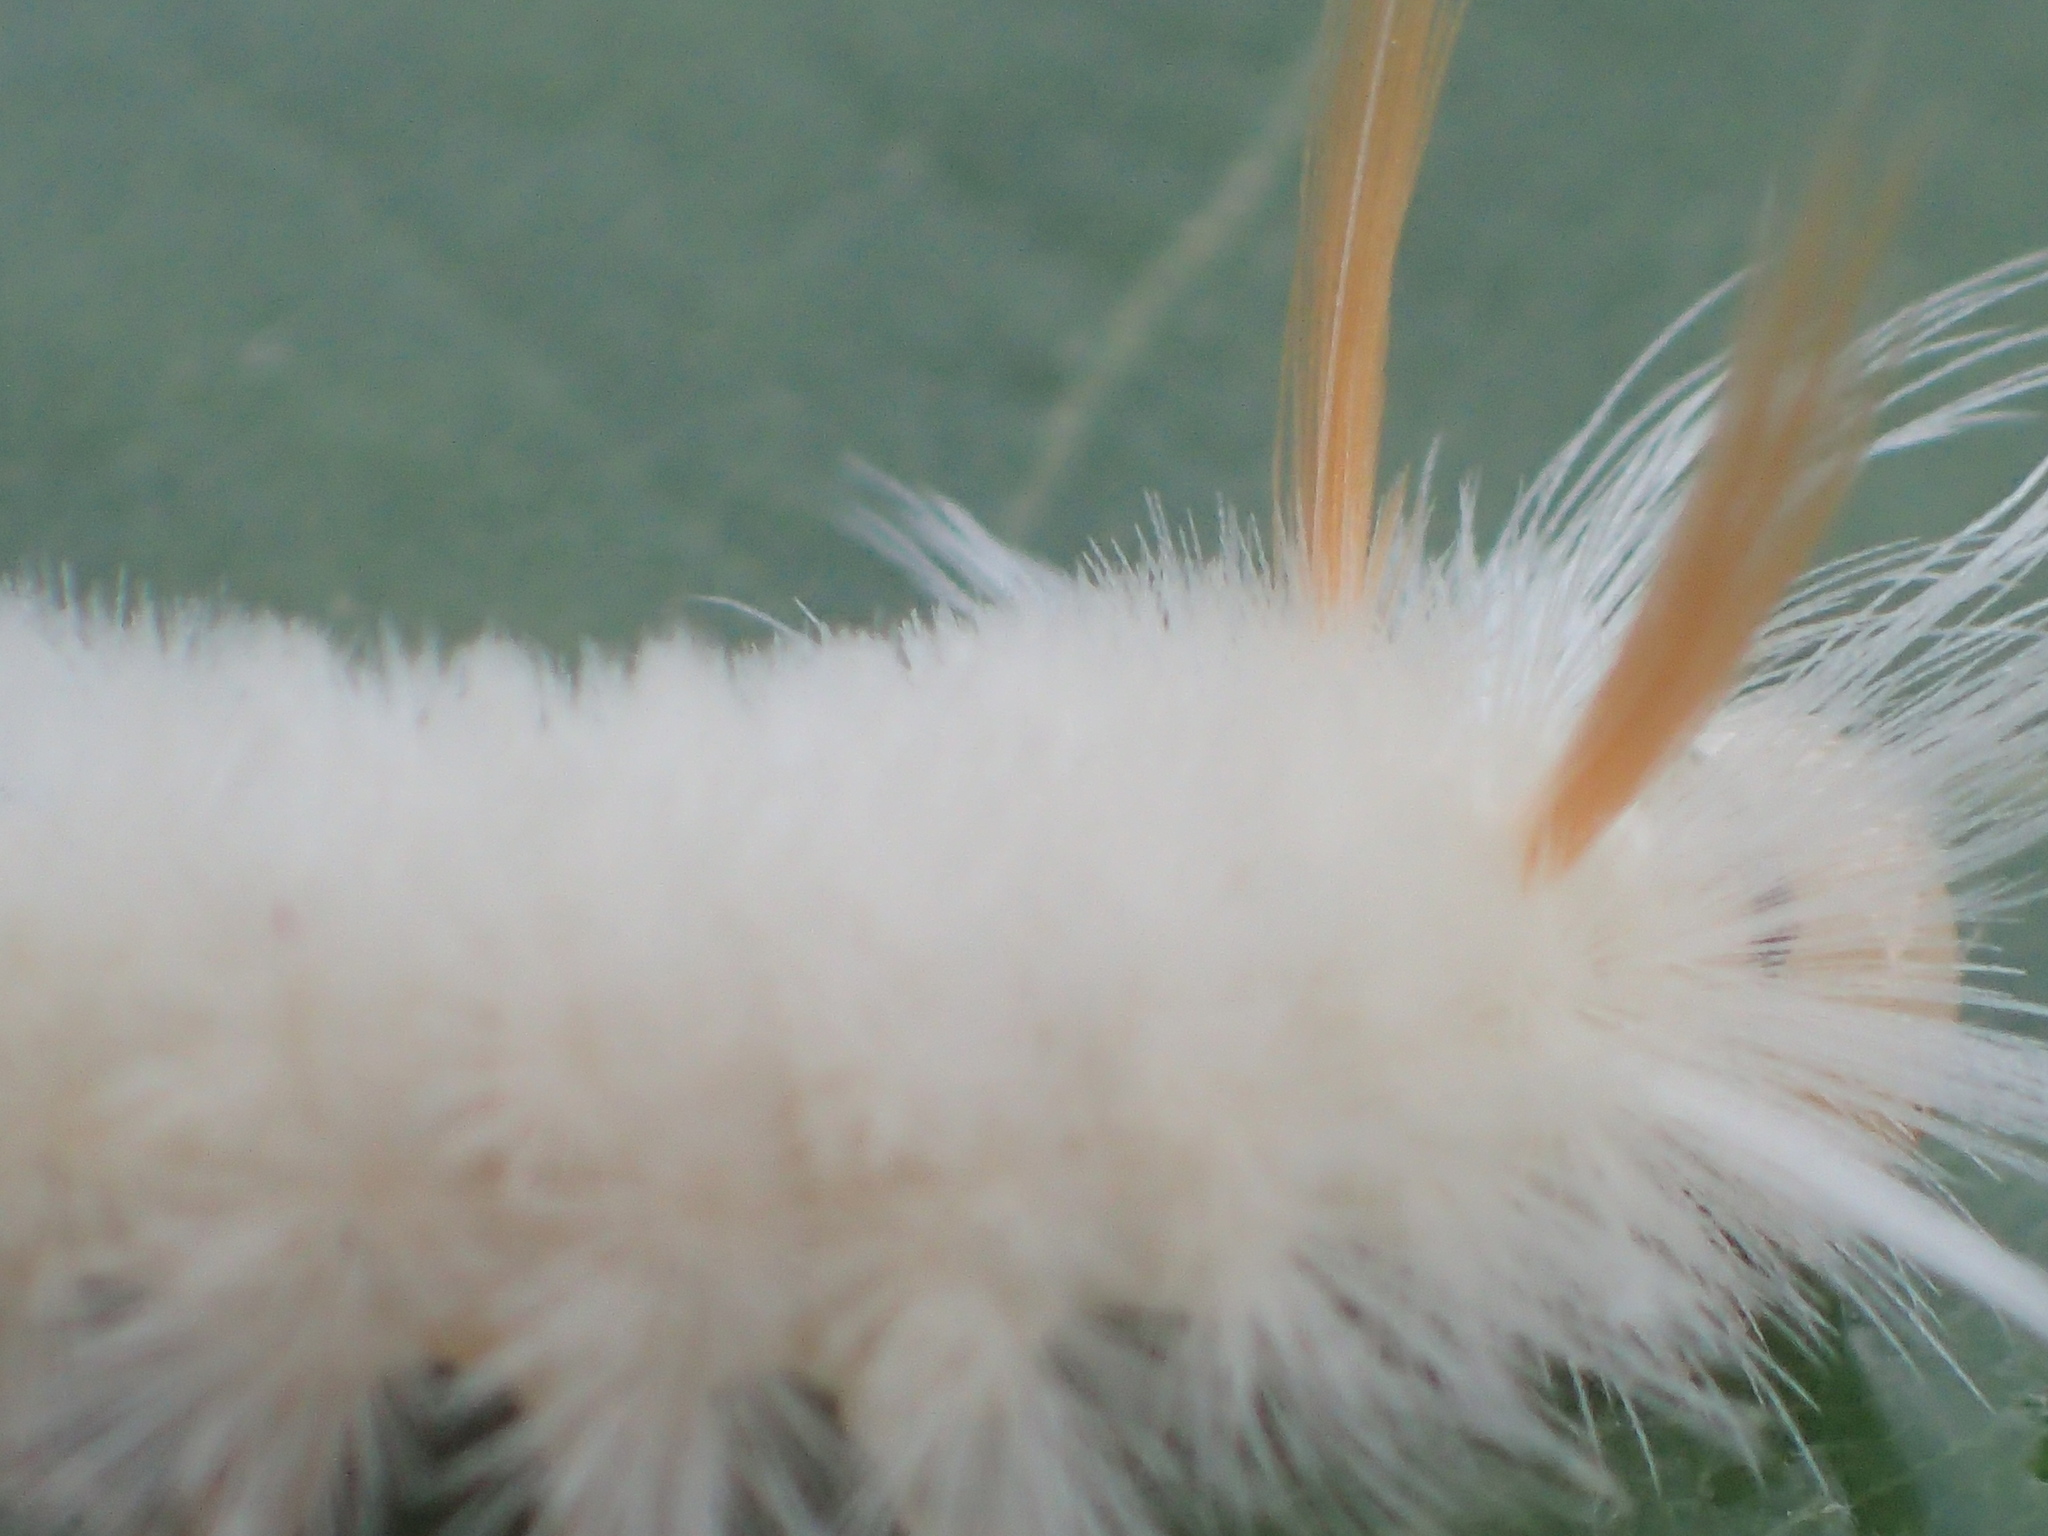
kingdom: Animalia
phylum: Arthropoda
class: Insecta
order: Lepidoptera
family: Erebidae
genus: Halysidota
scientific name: Halysidota harrisii
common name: Sycamore tussock moth
